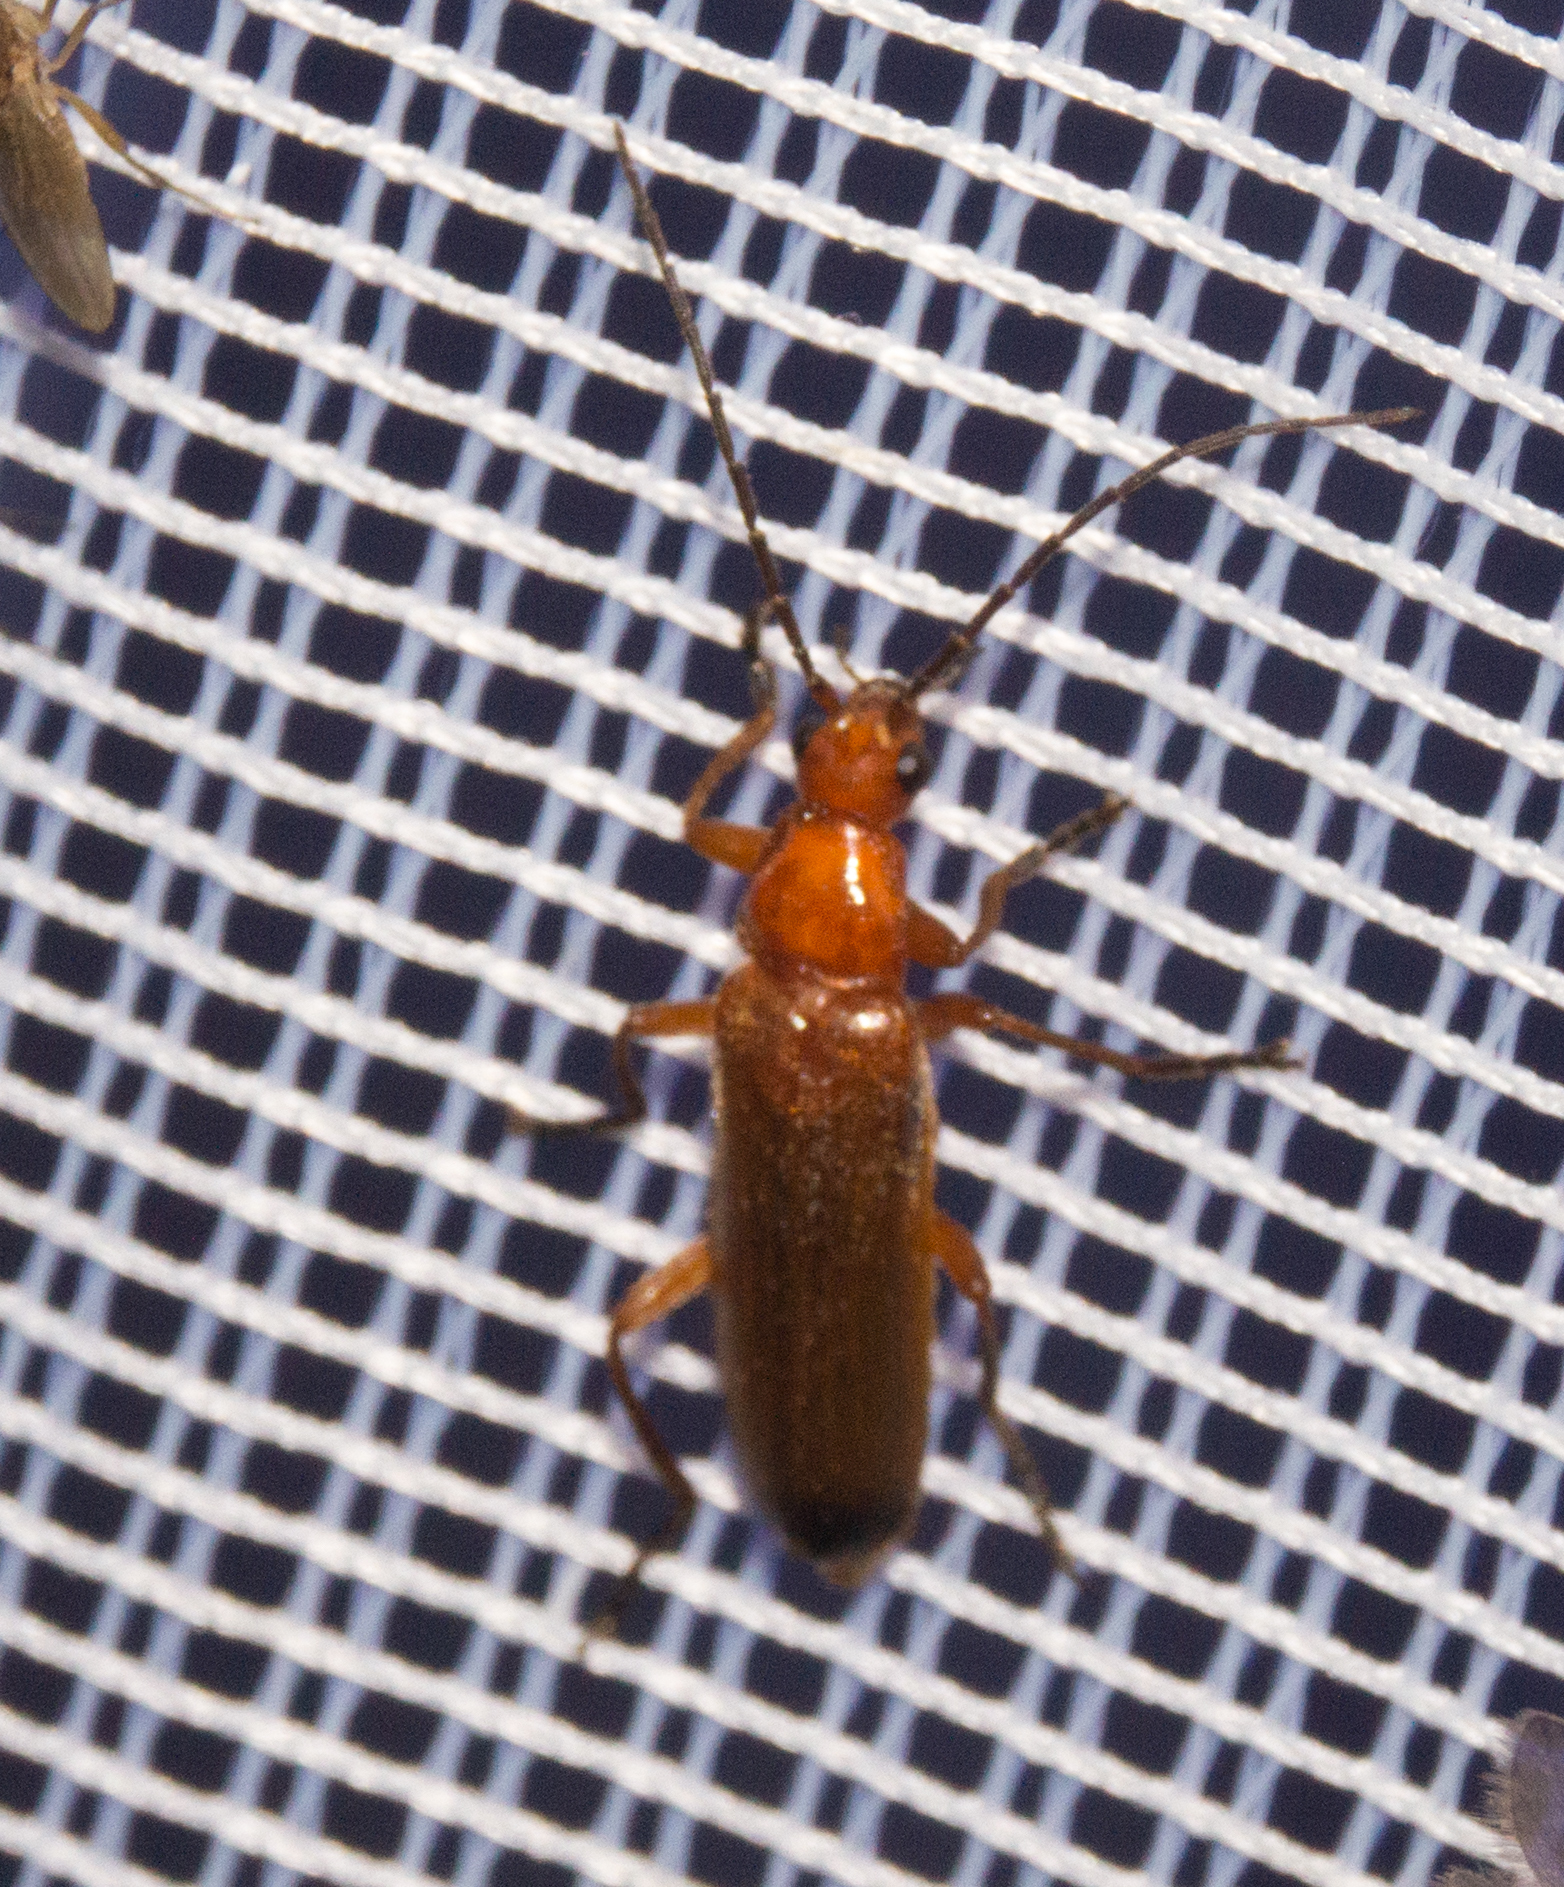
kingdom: Animalia
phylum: Arthropoda
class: Insecta
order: Coleoptera
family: Cantharidae
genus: Rhagonycha
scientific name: Rhagonycha fulva
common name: Common red soldier beetle
